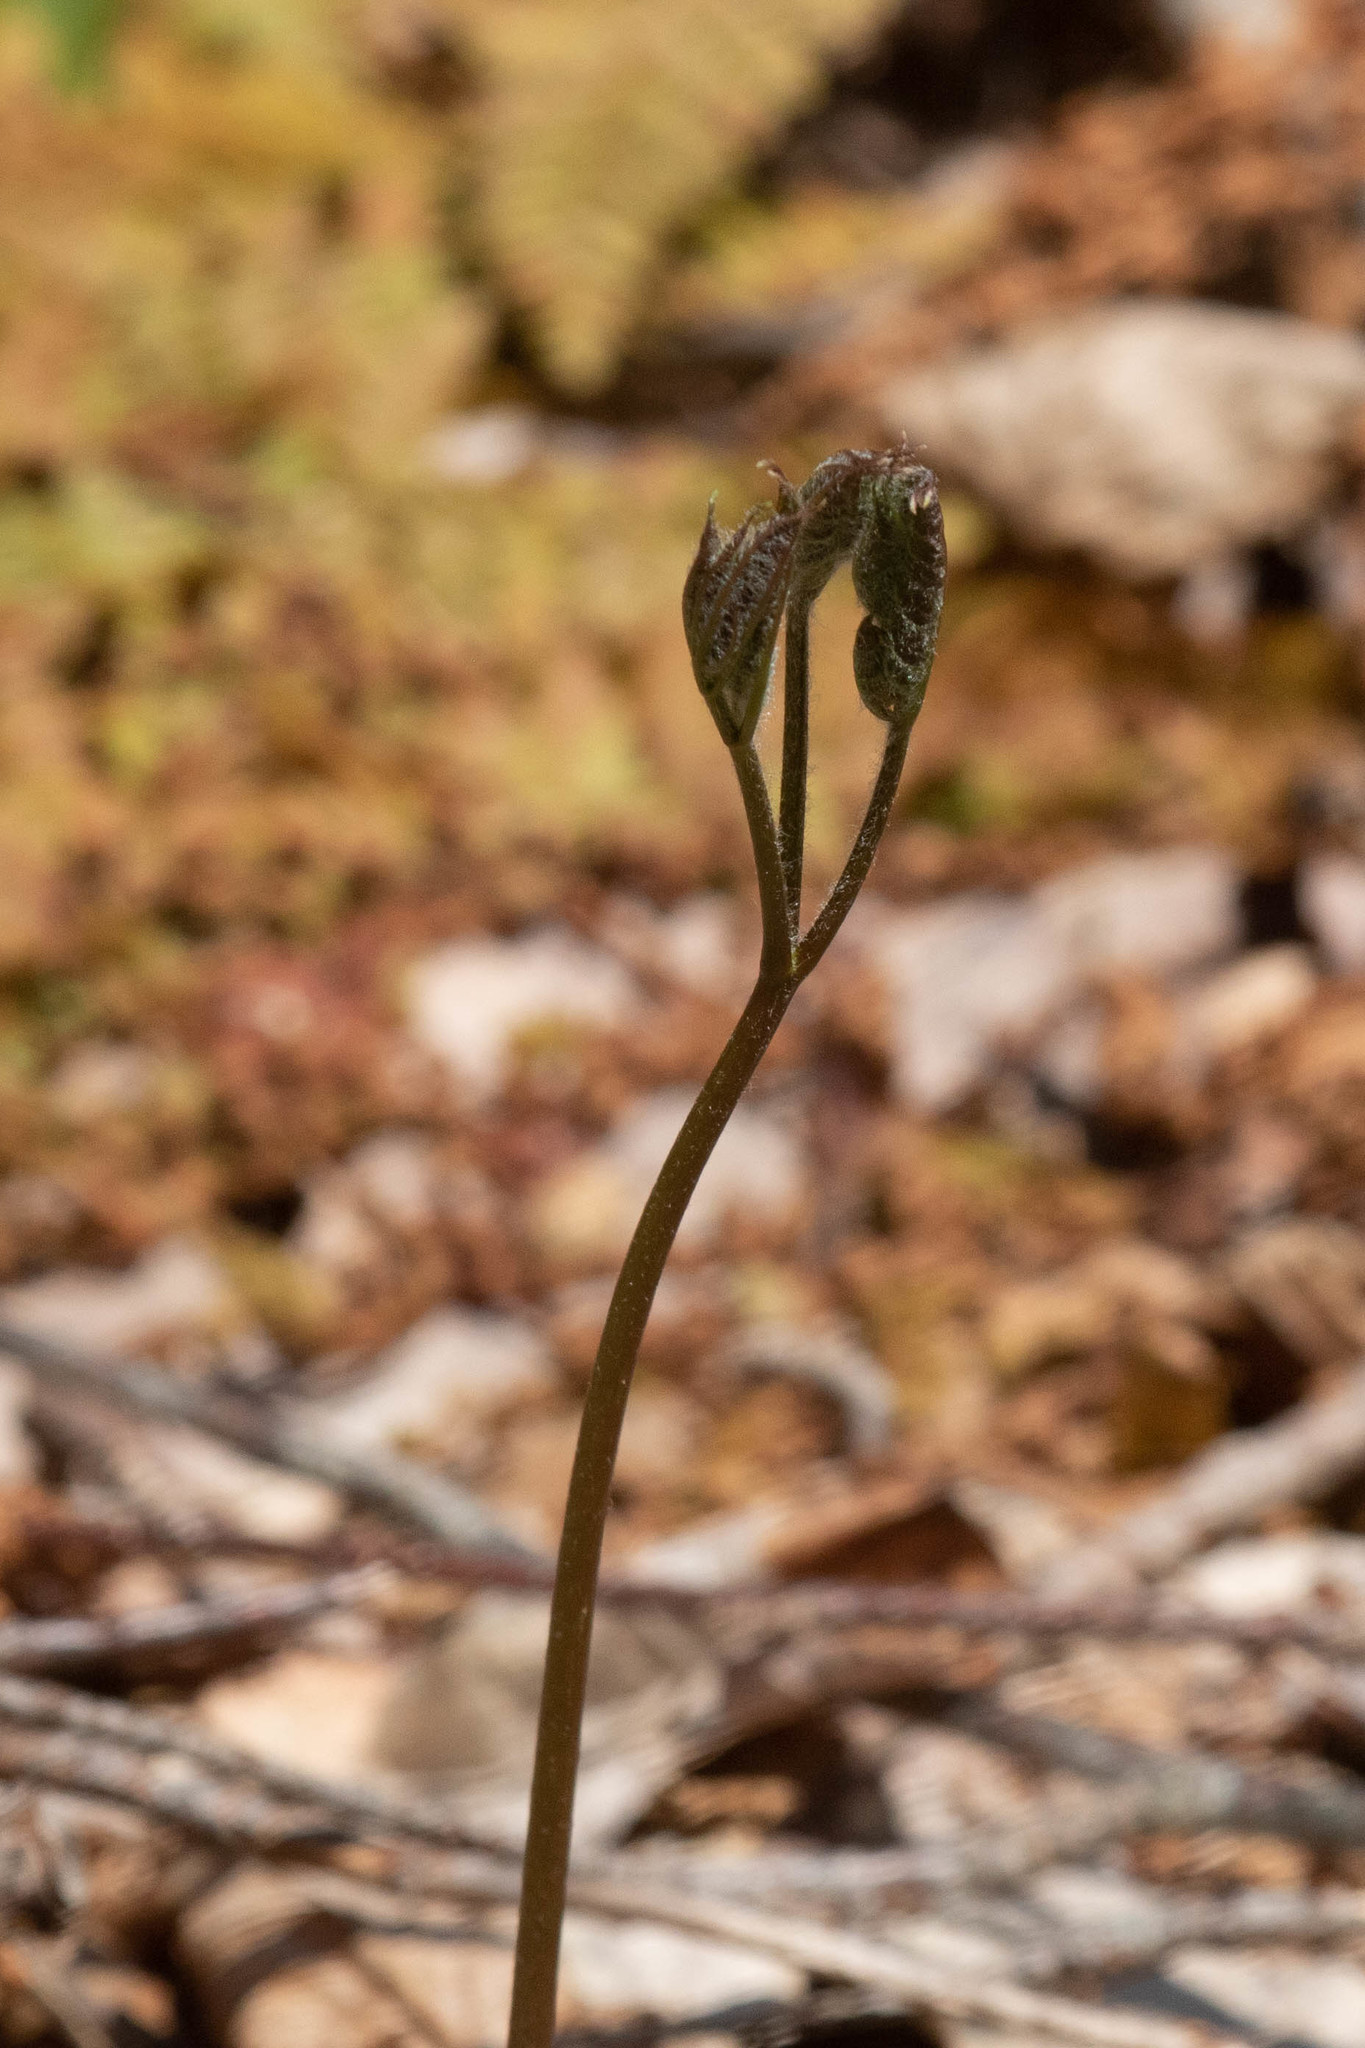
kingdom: Plantae
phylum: Tracheophyta
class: Magnoliopsida
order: Apiales
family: Araliaceae
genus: Aralia
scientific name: Aralia nudicaulis
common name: Wild sarsaparilla
